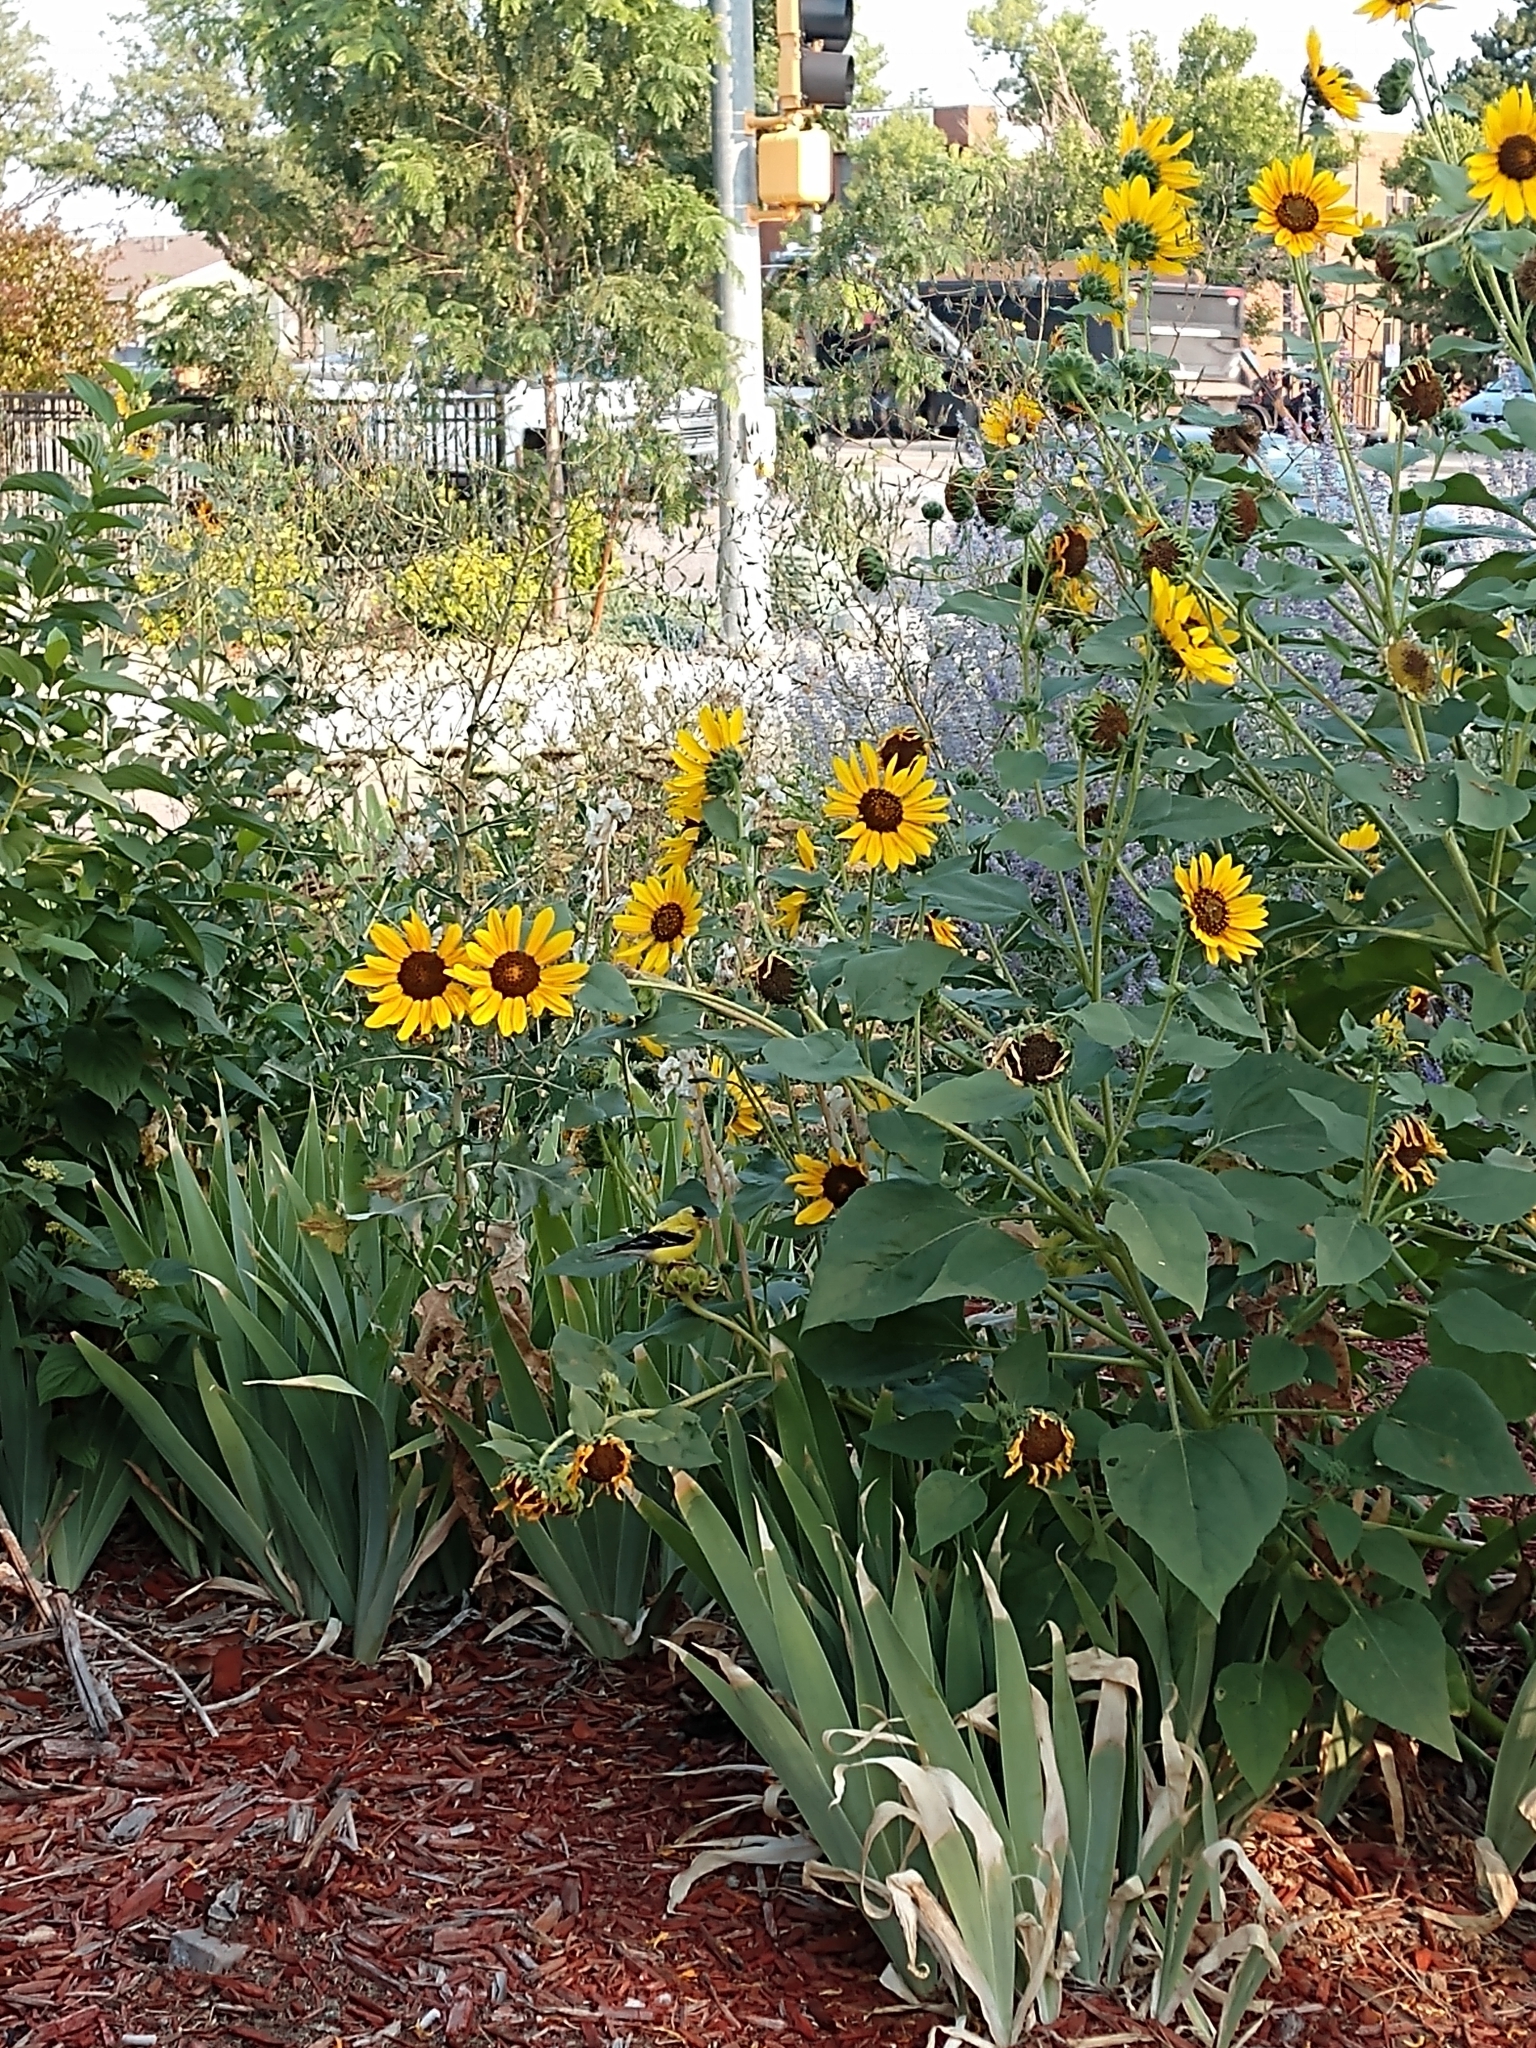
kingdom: Animalia
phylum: Chordata
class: Aves
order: Passeriformes
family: Fringillidae
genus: Spinus
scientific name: Spinus tristis
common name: American goldfinch
